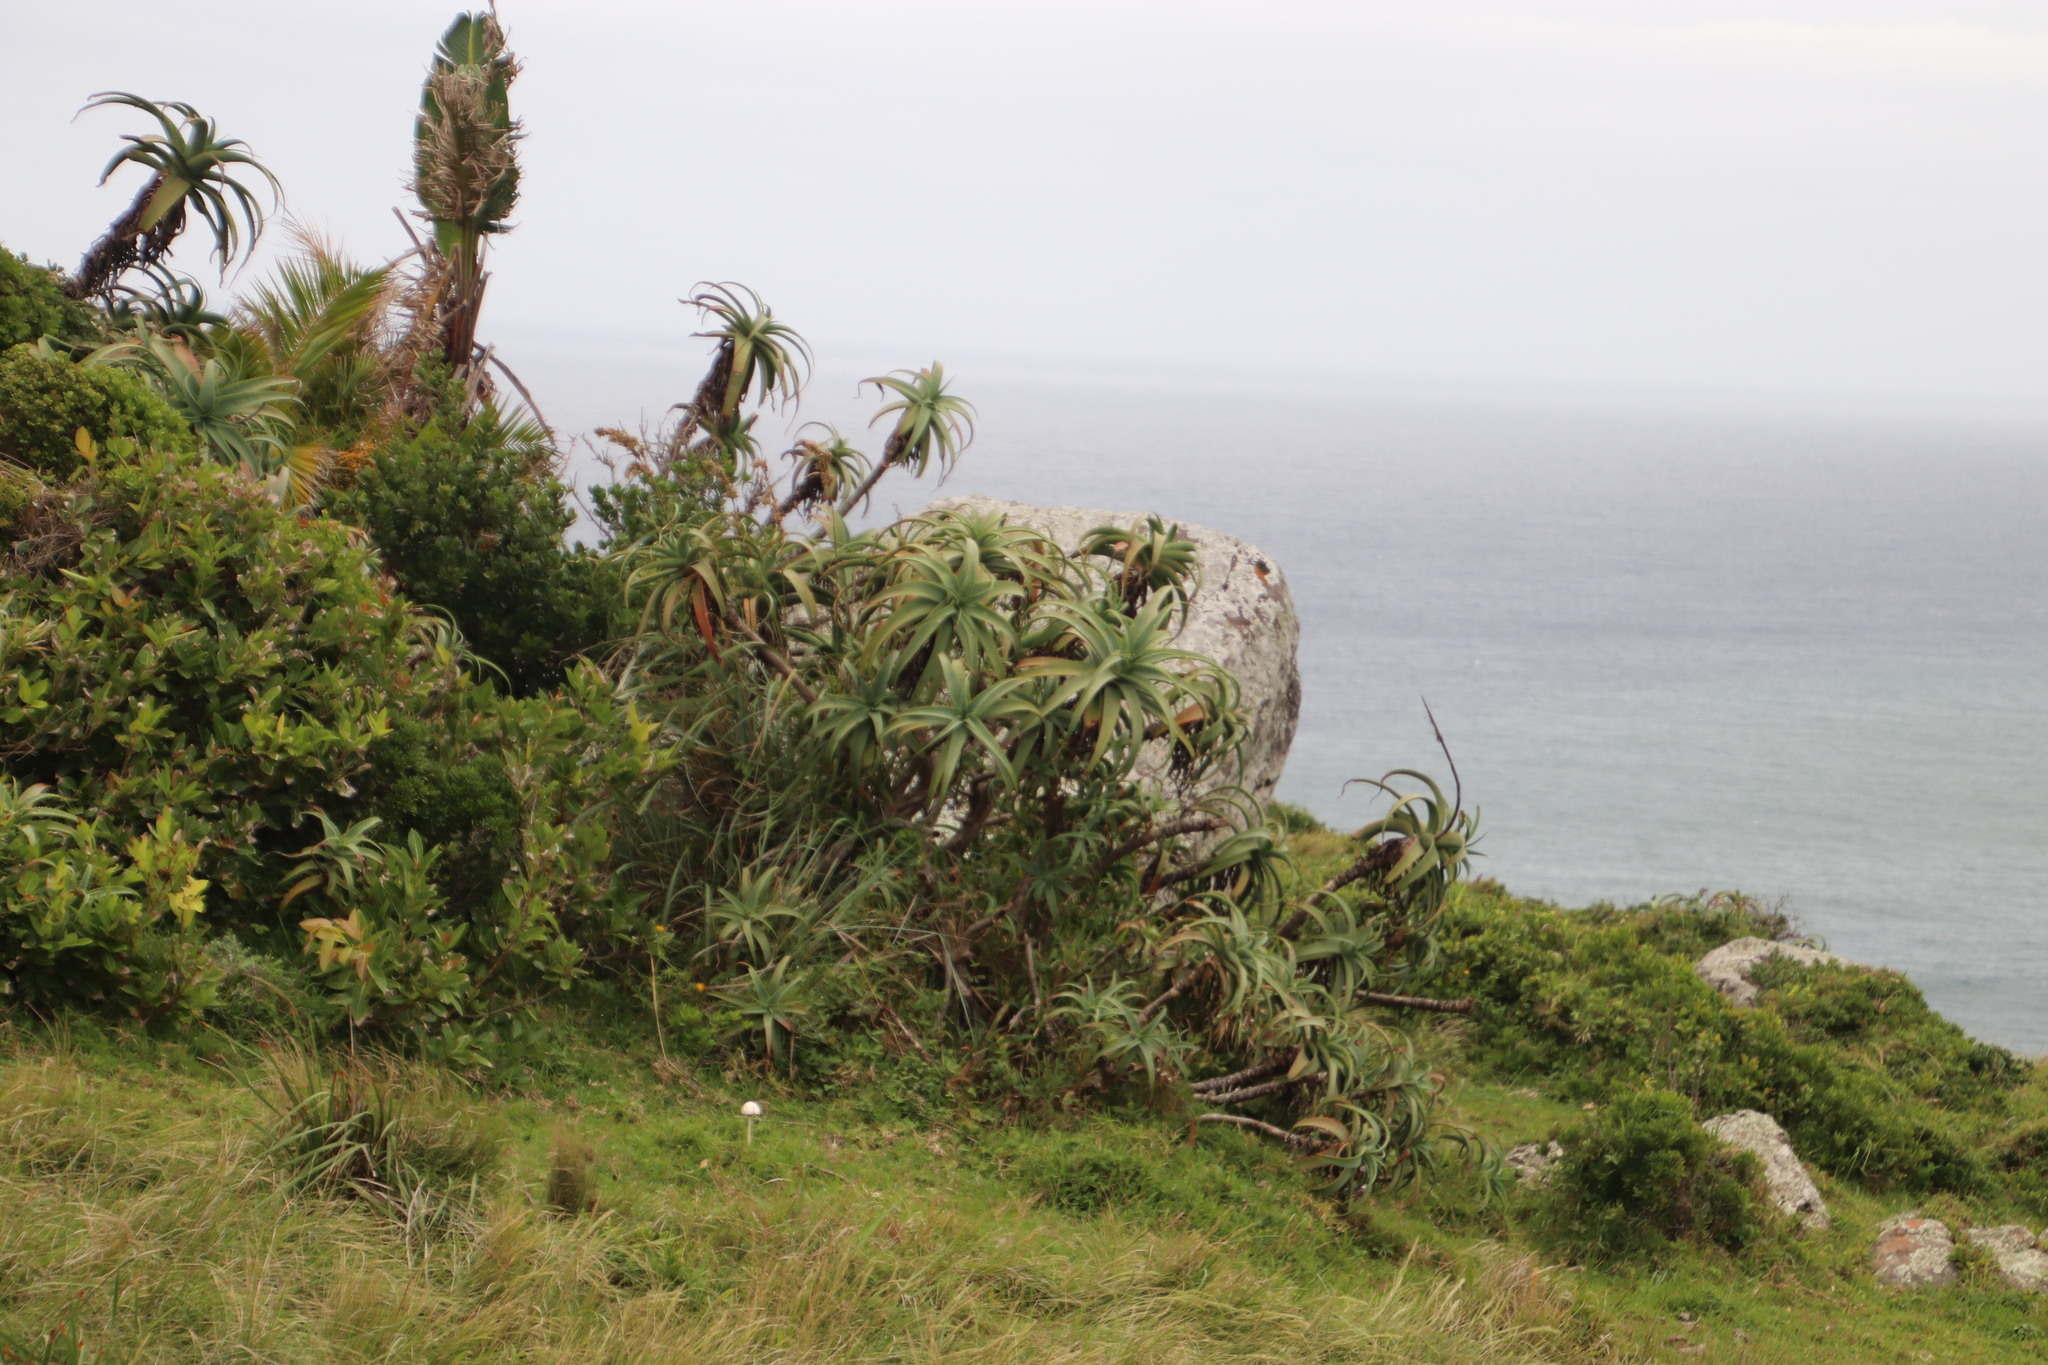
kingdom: Plantae
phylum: Tracheophyta
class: Liliopsida
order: Asparagales
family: Asphodelaceae
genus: Aloe
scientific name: Aloe arborescens
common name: Candelabra aloe
